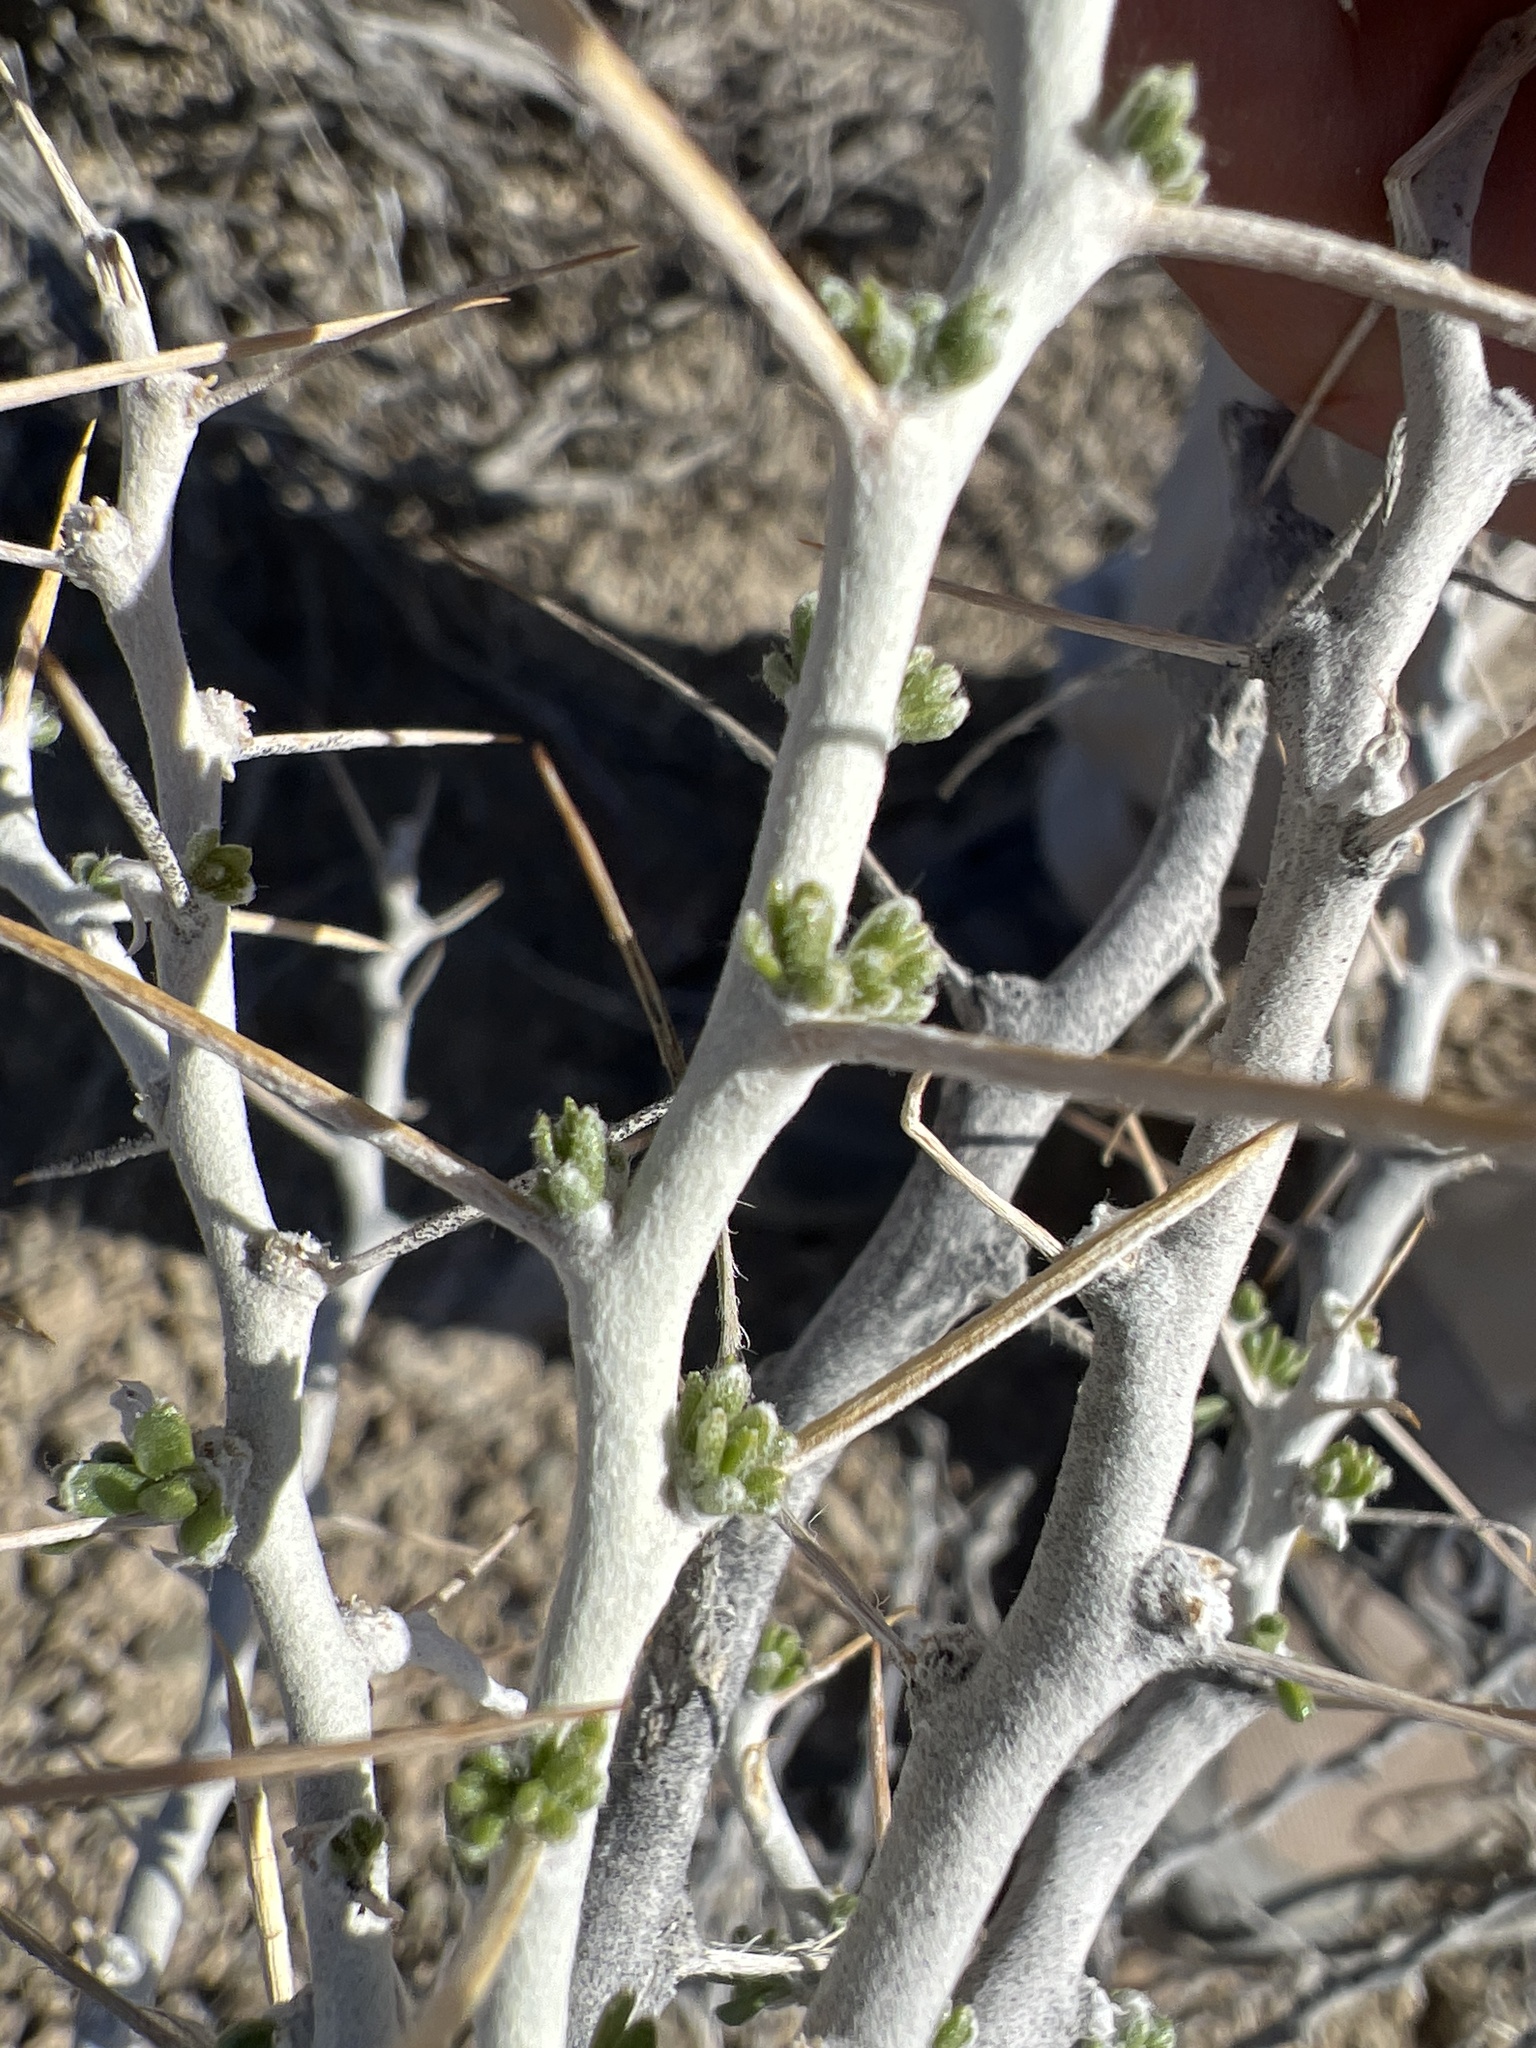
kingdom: Plantae
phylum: Tracheophyta
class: Magnoliopsida
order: Asterales
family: Asteraceae
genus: Tetradymia
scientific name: Tetradymia axillaris
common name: Long-spine horsebrush
